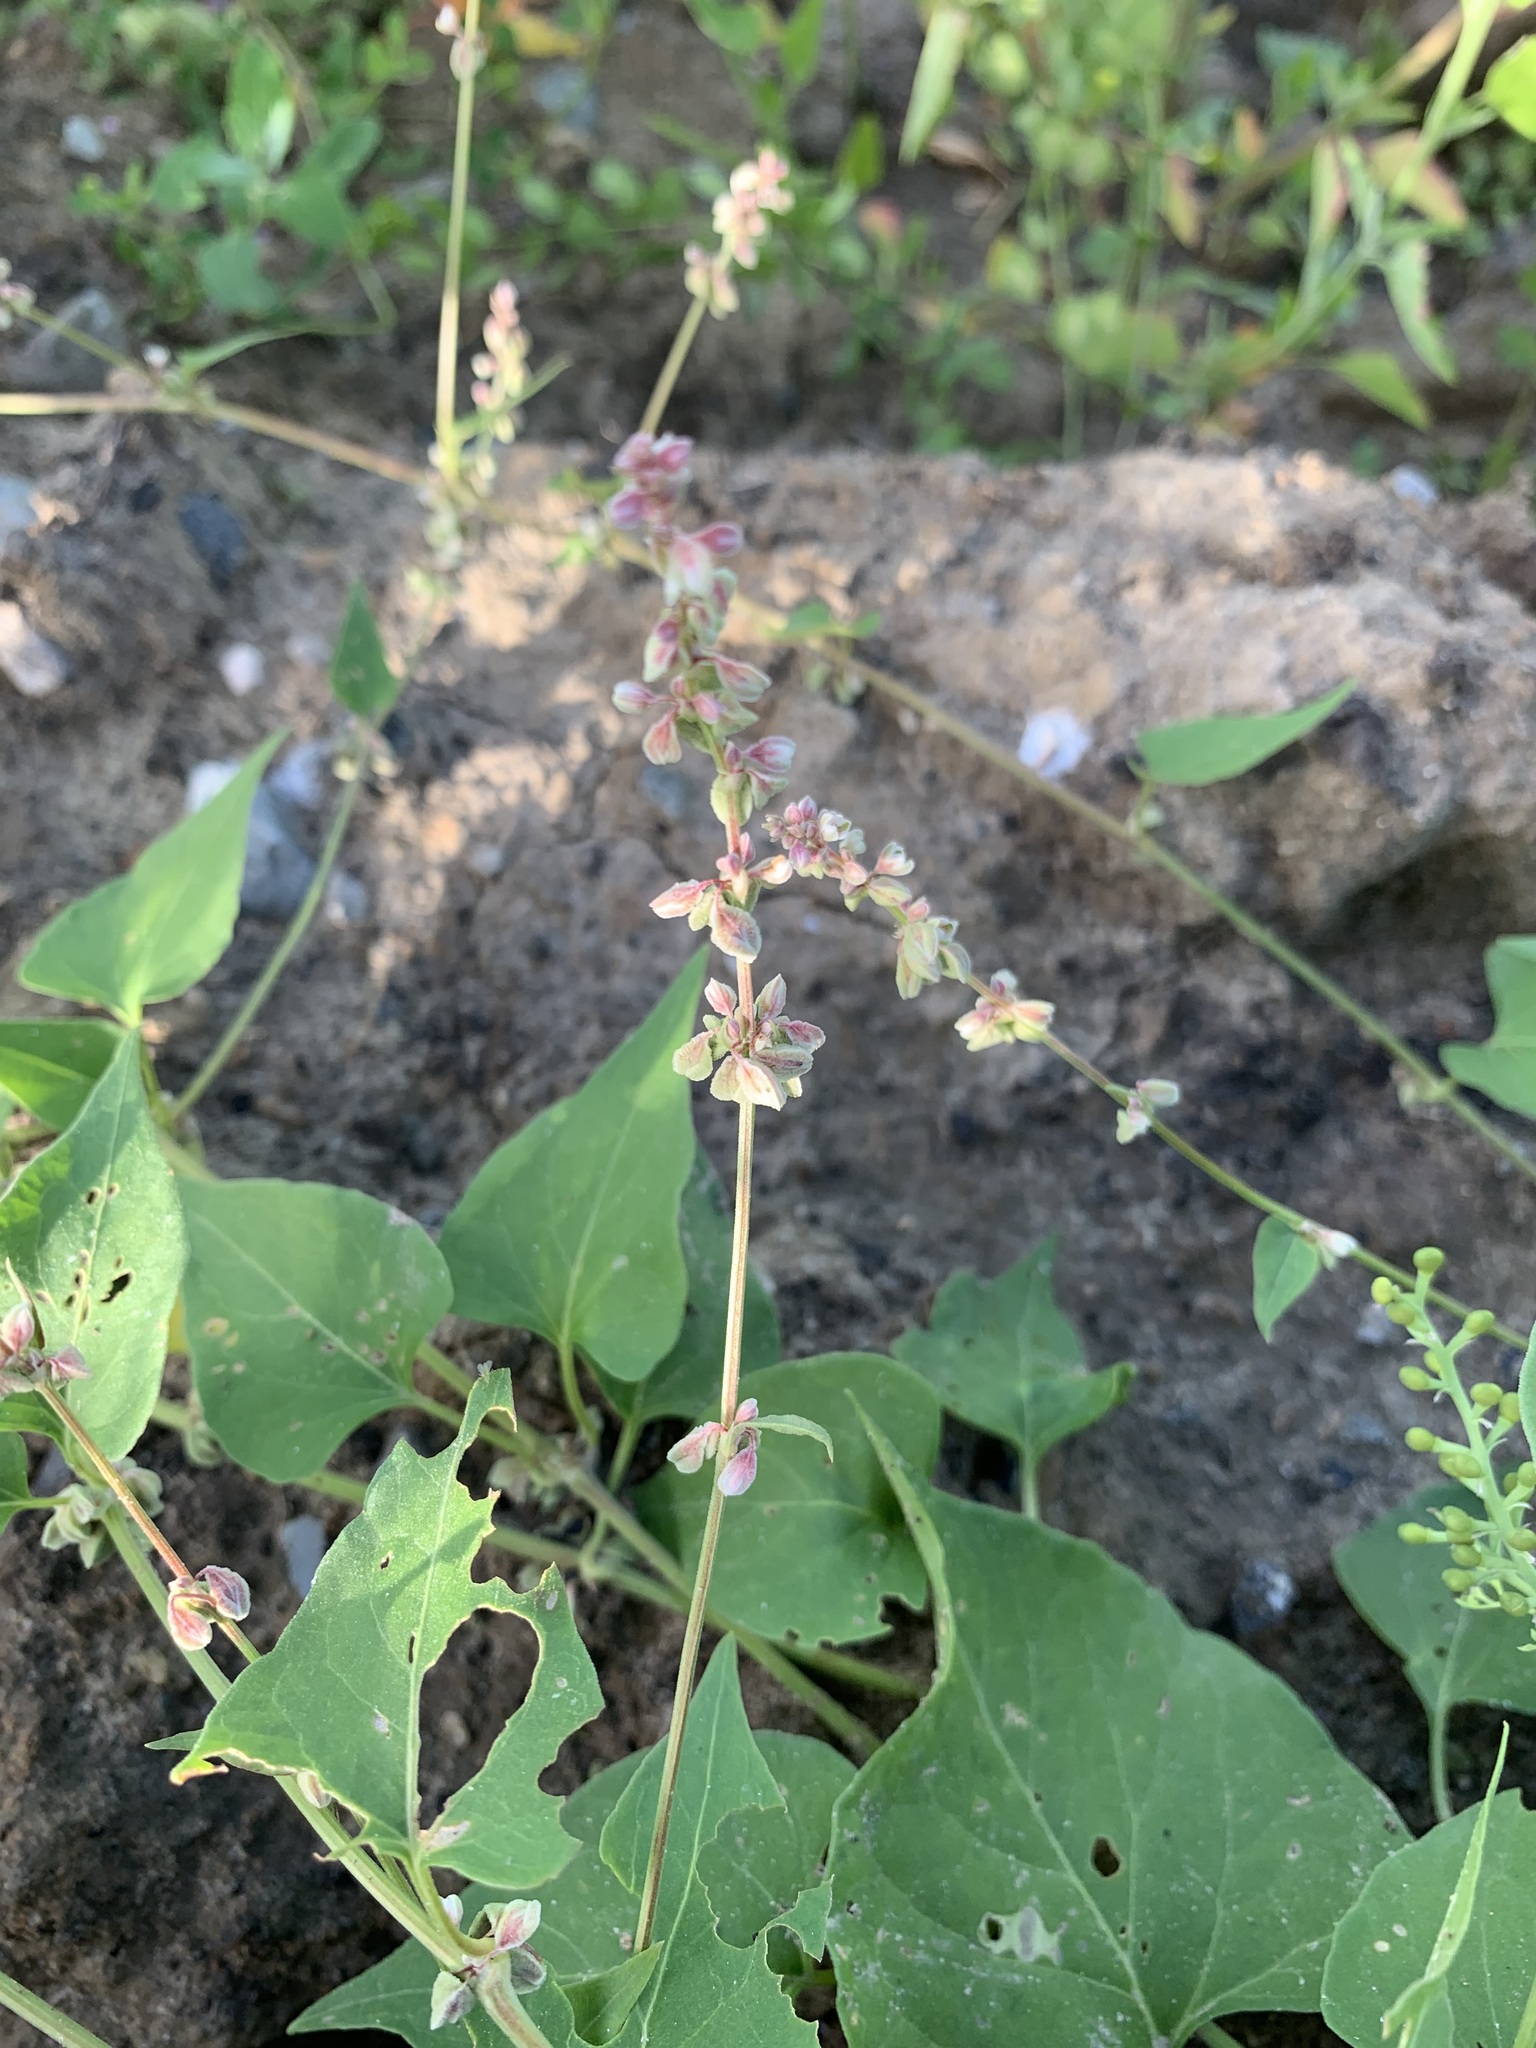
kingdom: Plantae
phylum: Tracheophyta
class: Magnoliopsida
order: Caryophyllales
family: Polygonaceae
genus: Fallopia
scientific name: Fallopia convolvulus
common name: Black bindweed
